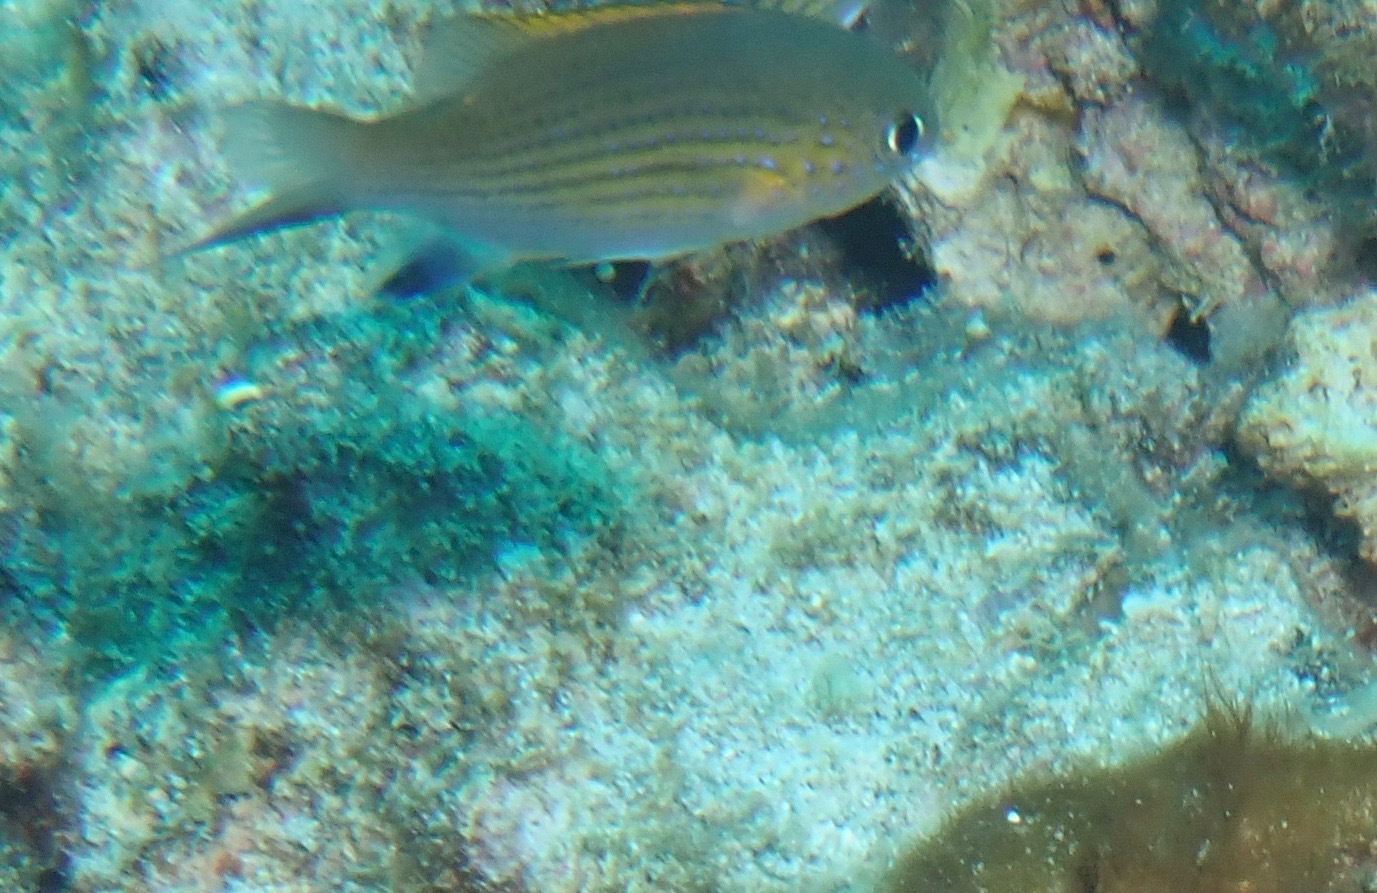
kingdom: Animalia
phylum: Chordata
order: Perciformes
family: Pomacentridae
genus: Chromis
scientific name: Chromis vanderbilti
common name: Vanderbilt's chromis
